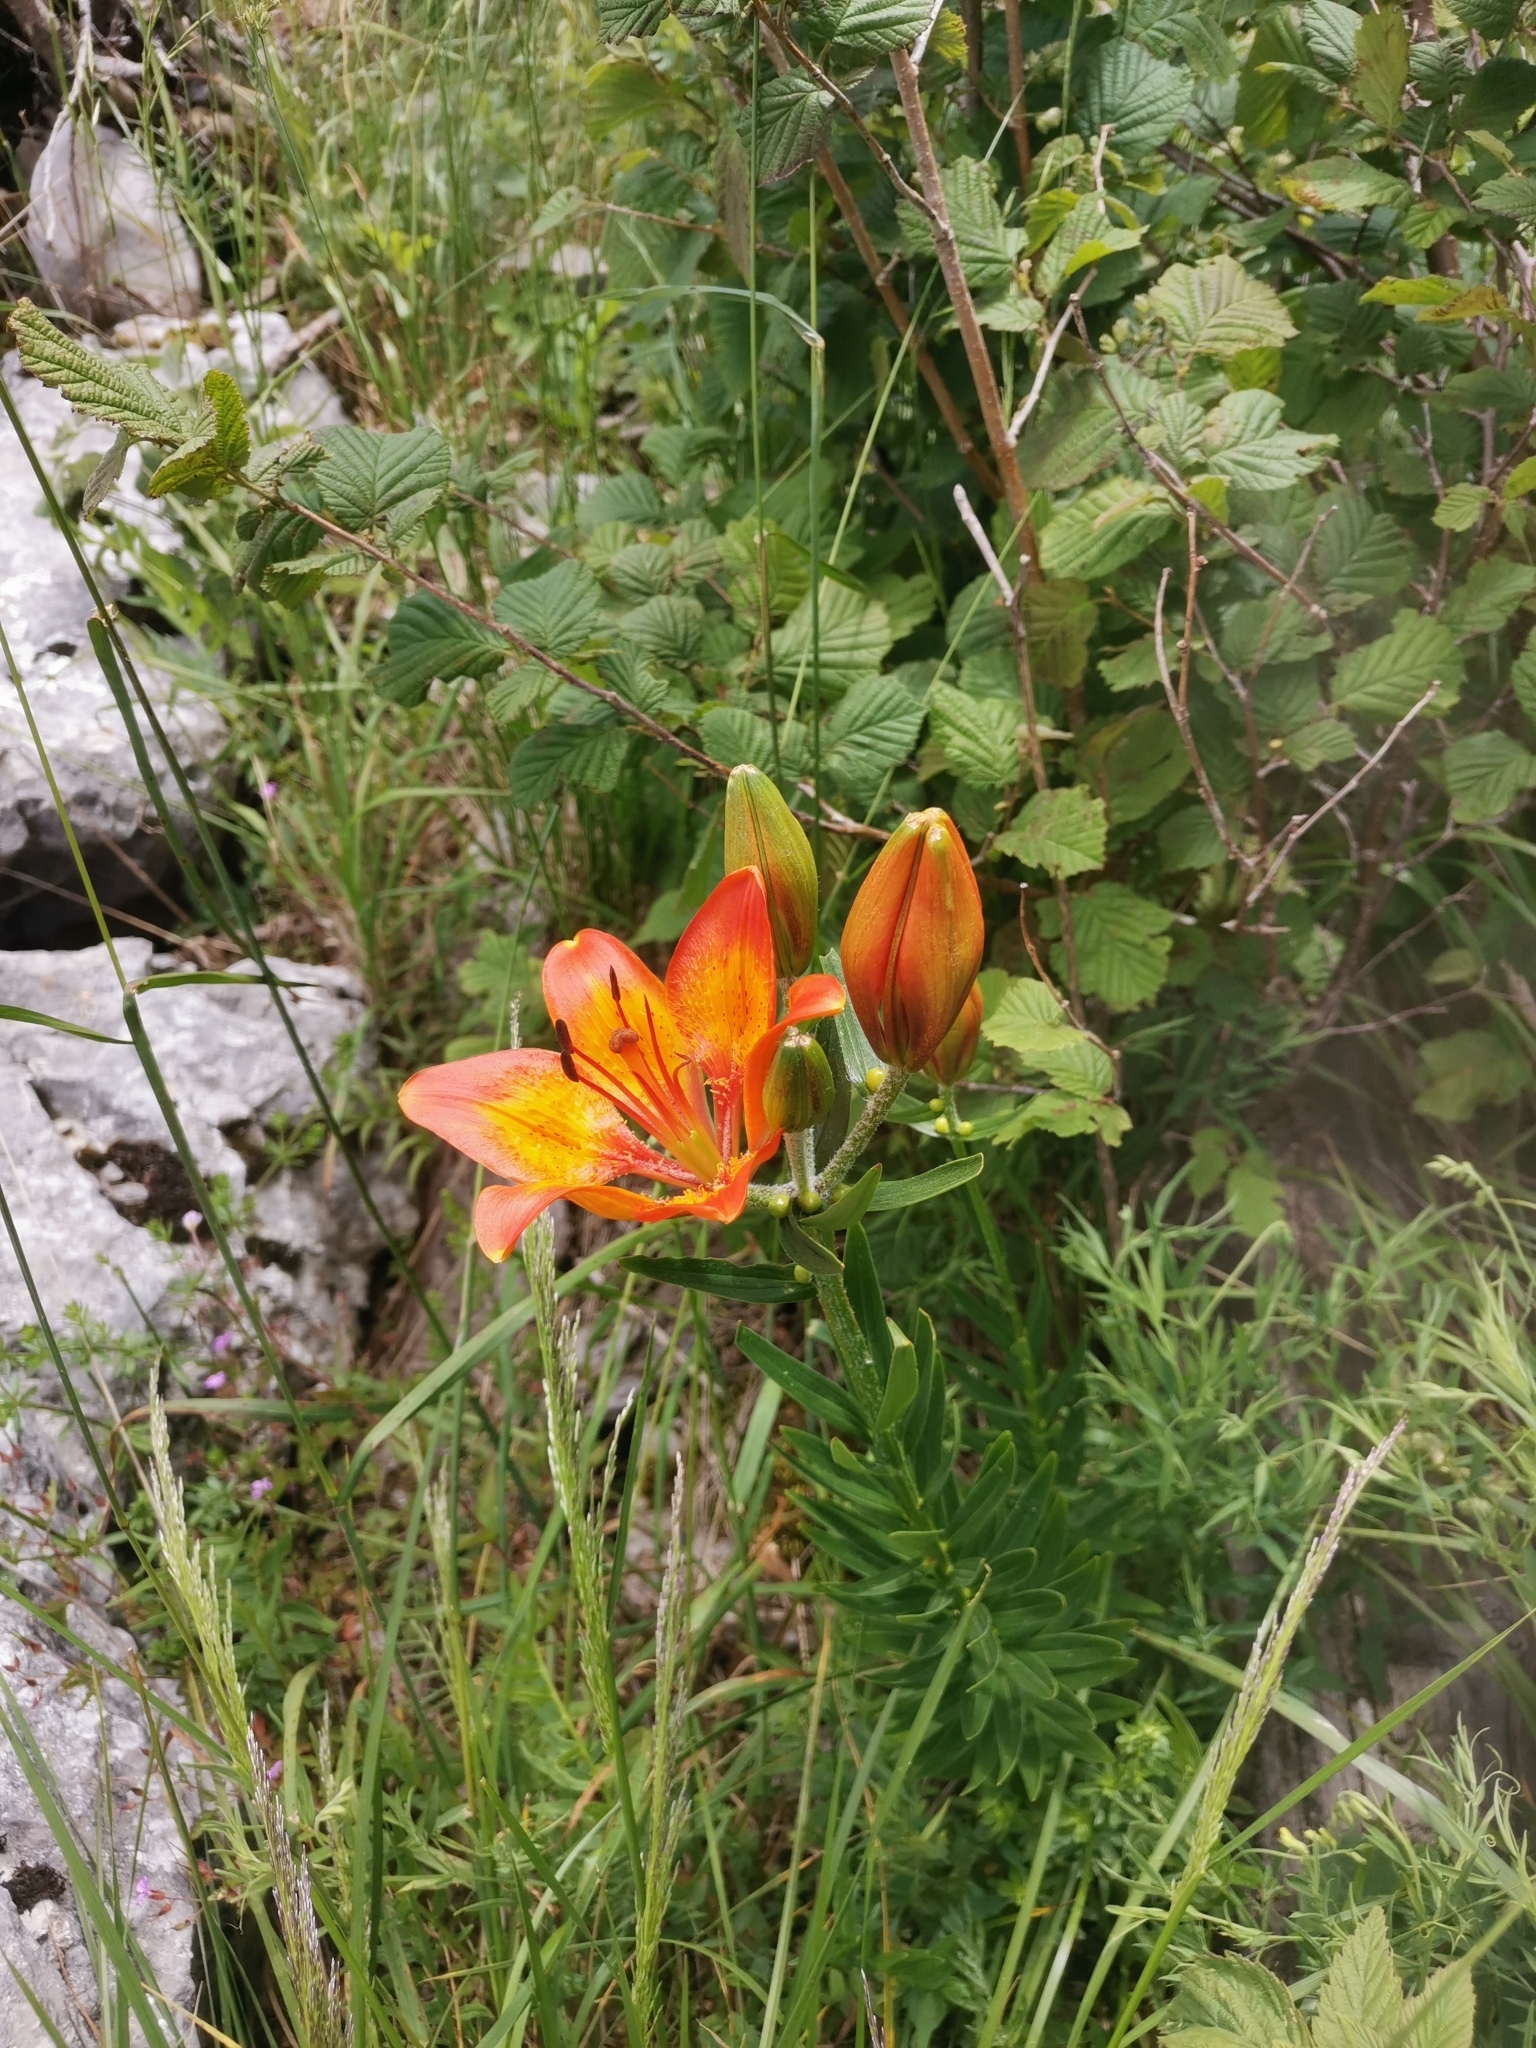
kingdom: Plantae
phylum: Tracheophyta
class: Liliopsida
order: Liliales
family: Liliaceae
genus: Lilium
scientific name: Lilium bulbiferum
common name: Orange lily
